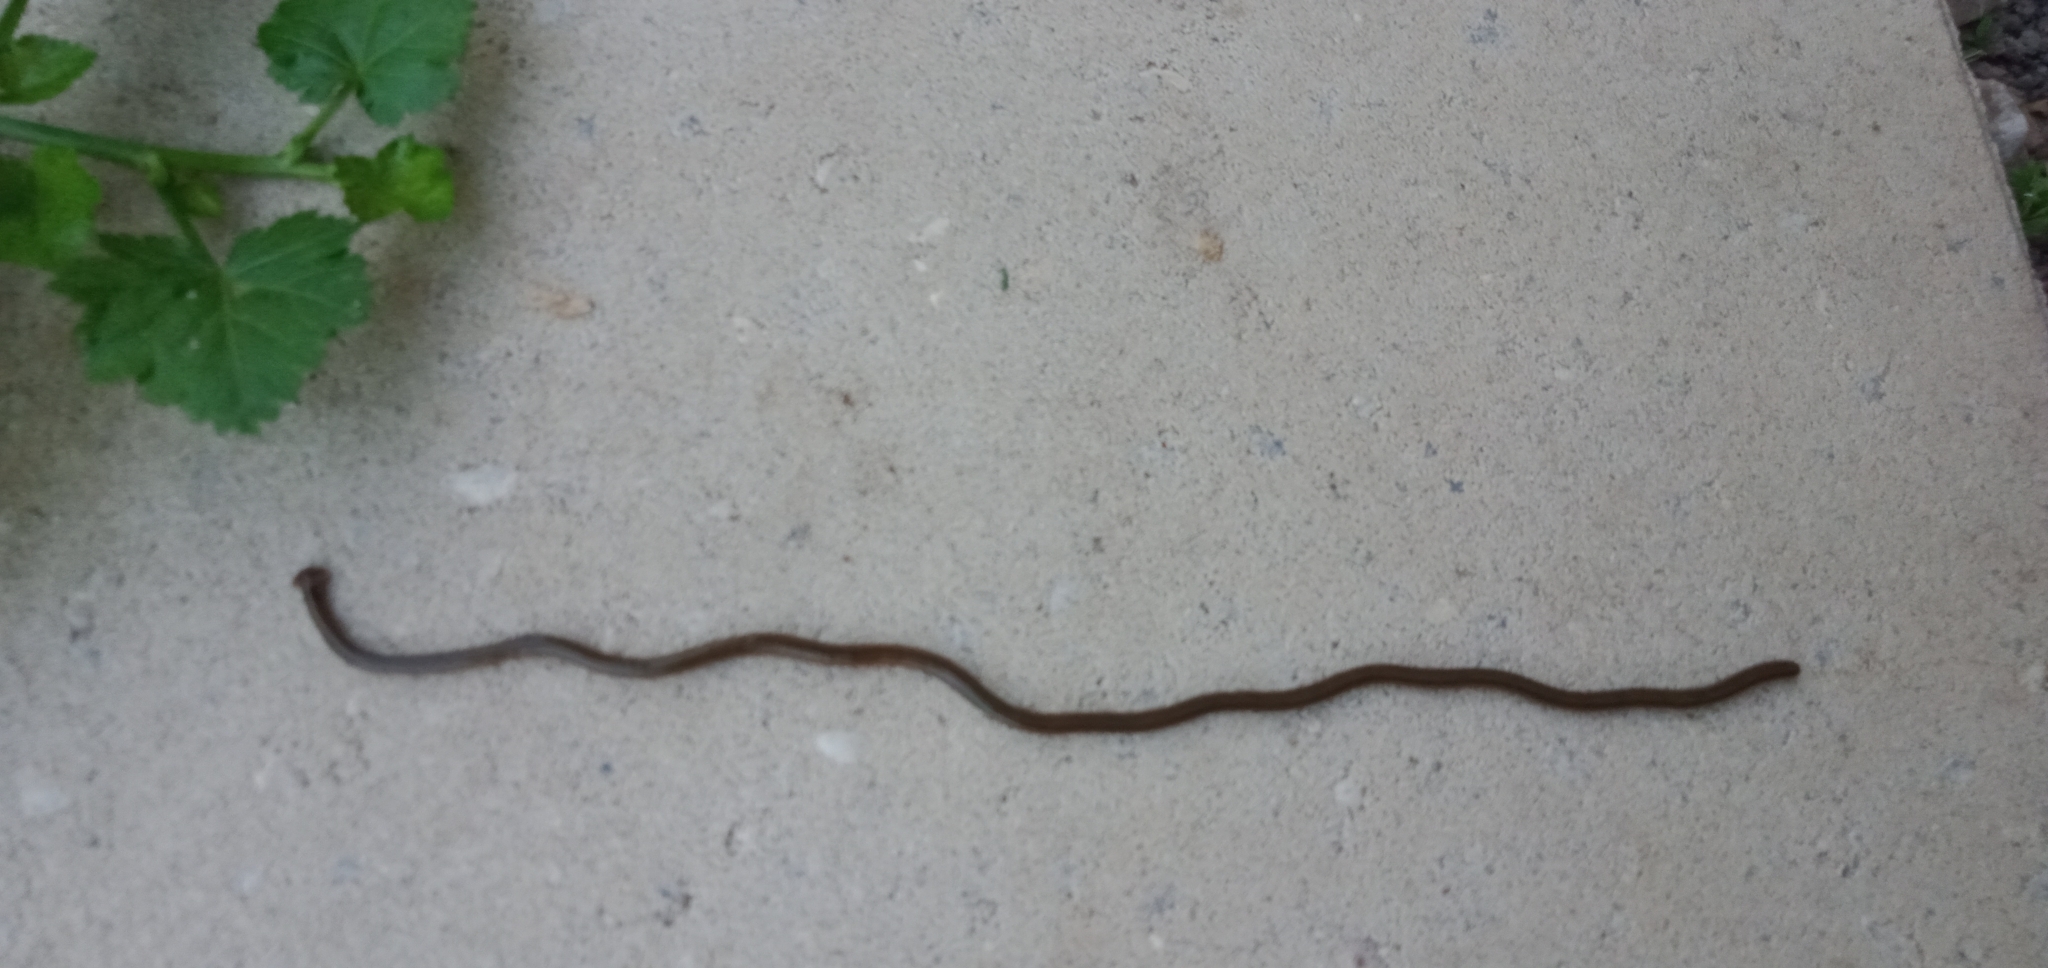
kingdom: Animalia
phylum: Platyhelminthes
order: Tricladida
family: Geoplanidae
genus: Bipalium
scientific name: Bipalium kewense
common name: Hammerhead flatworm
